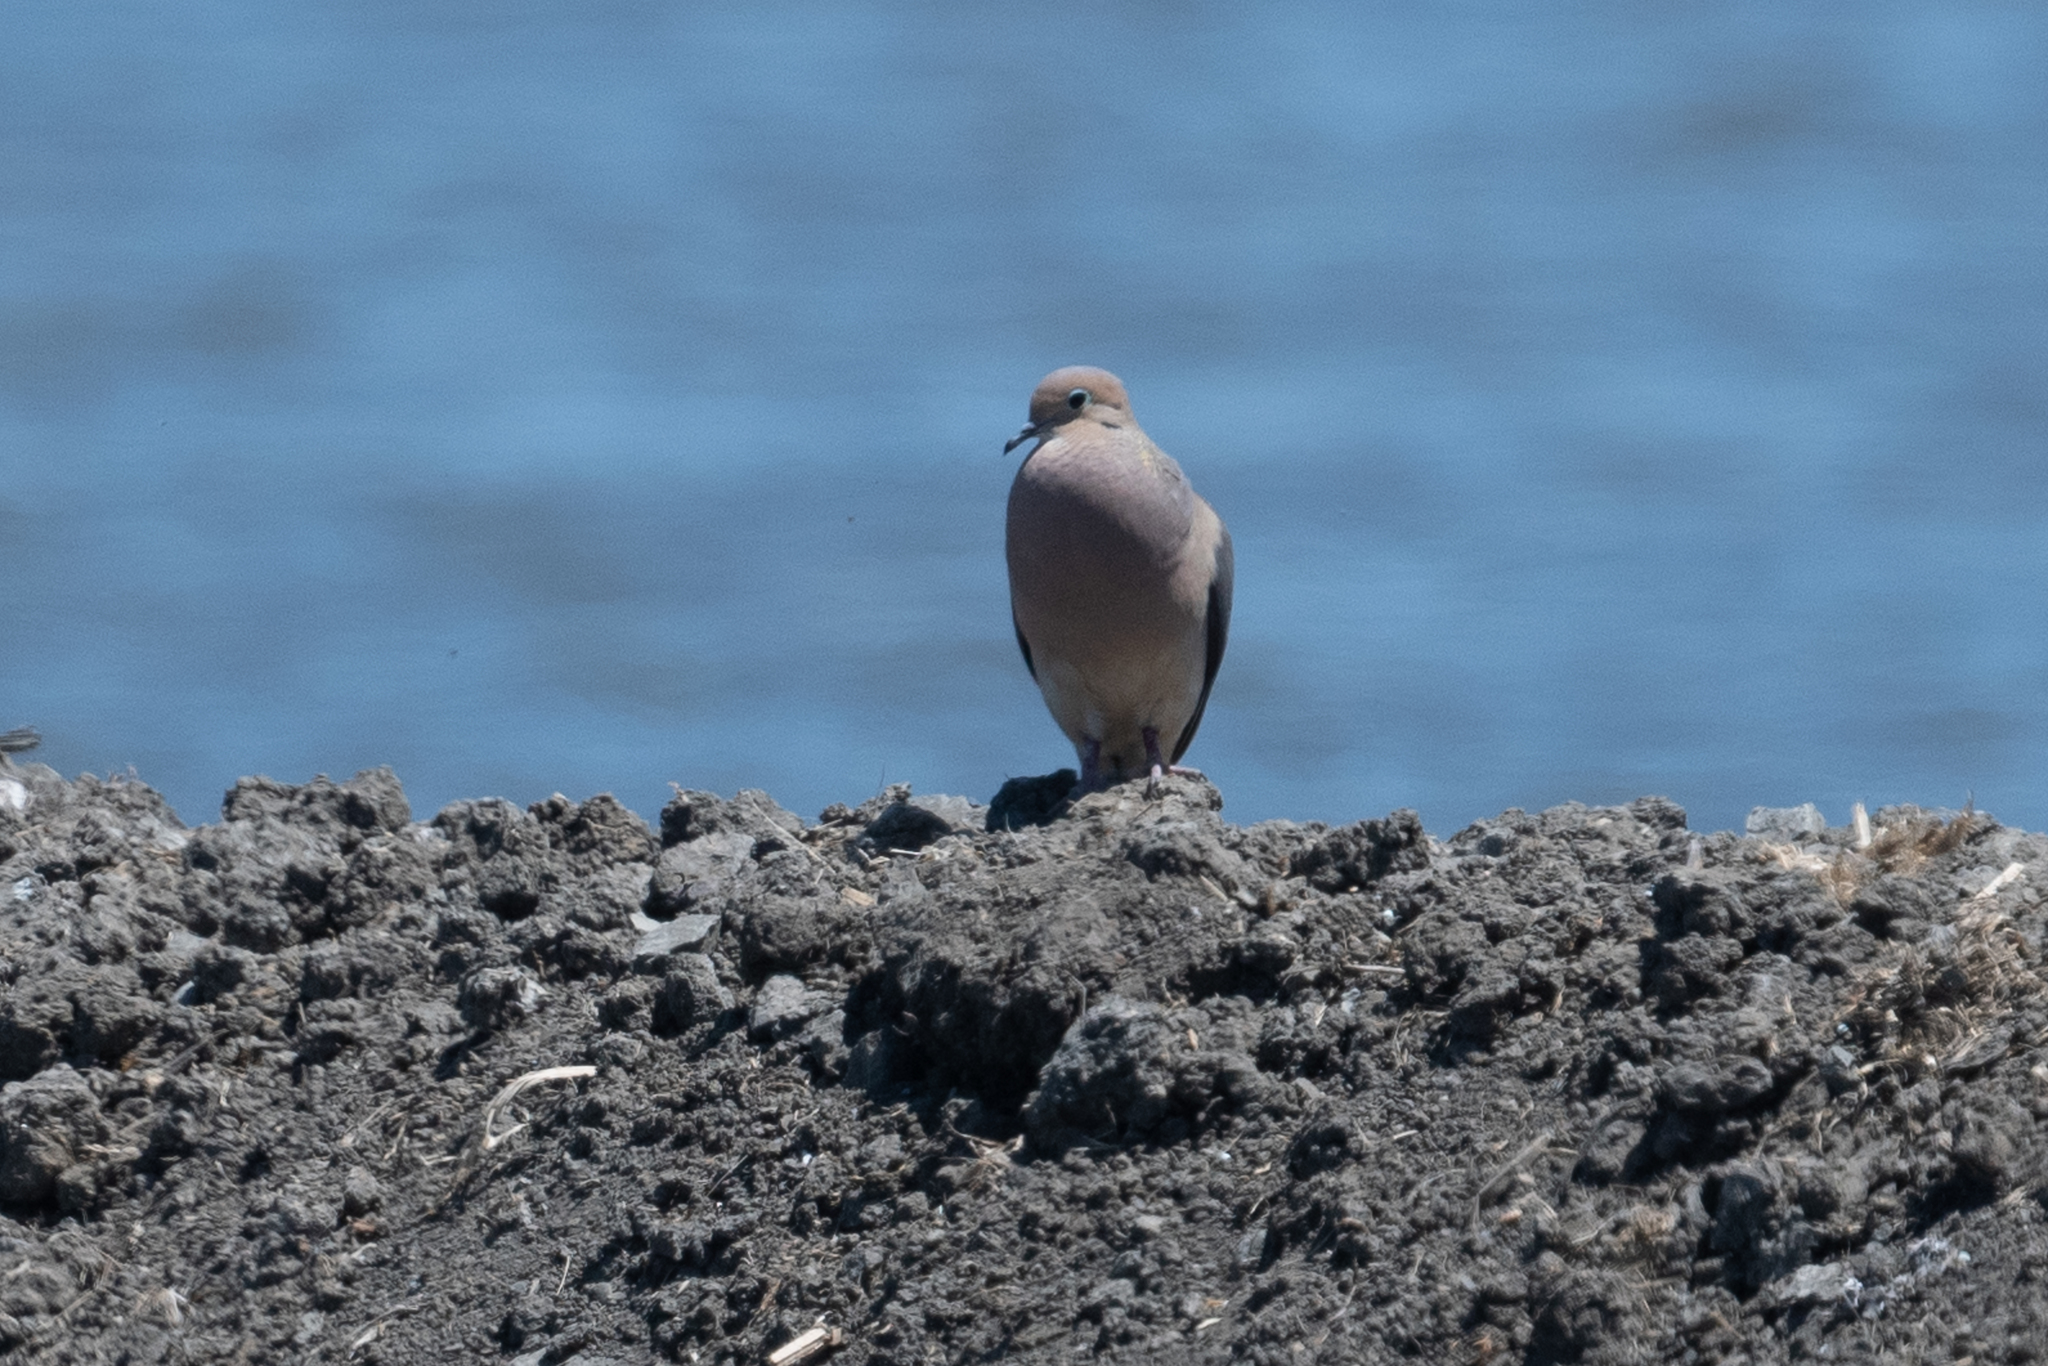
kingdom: Animalia
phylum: Chordata
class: Aves
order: Columbiformes
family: Columbidae
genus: Zenaida
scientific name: Zenaida macroura
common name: Mourning dove
